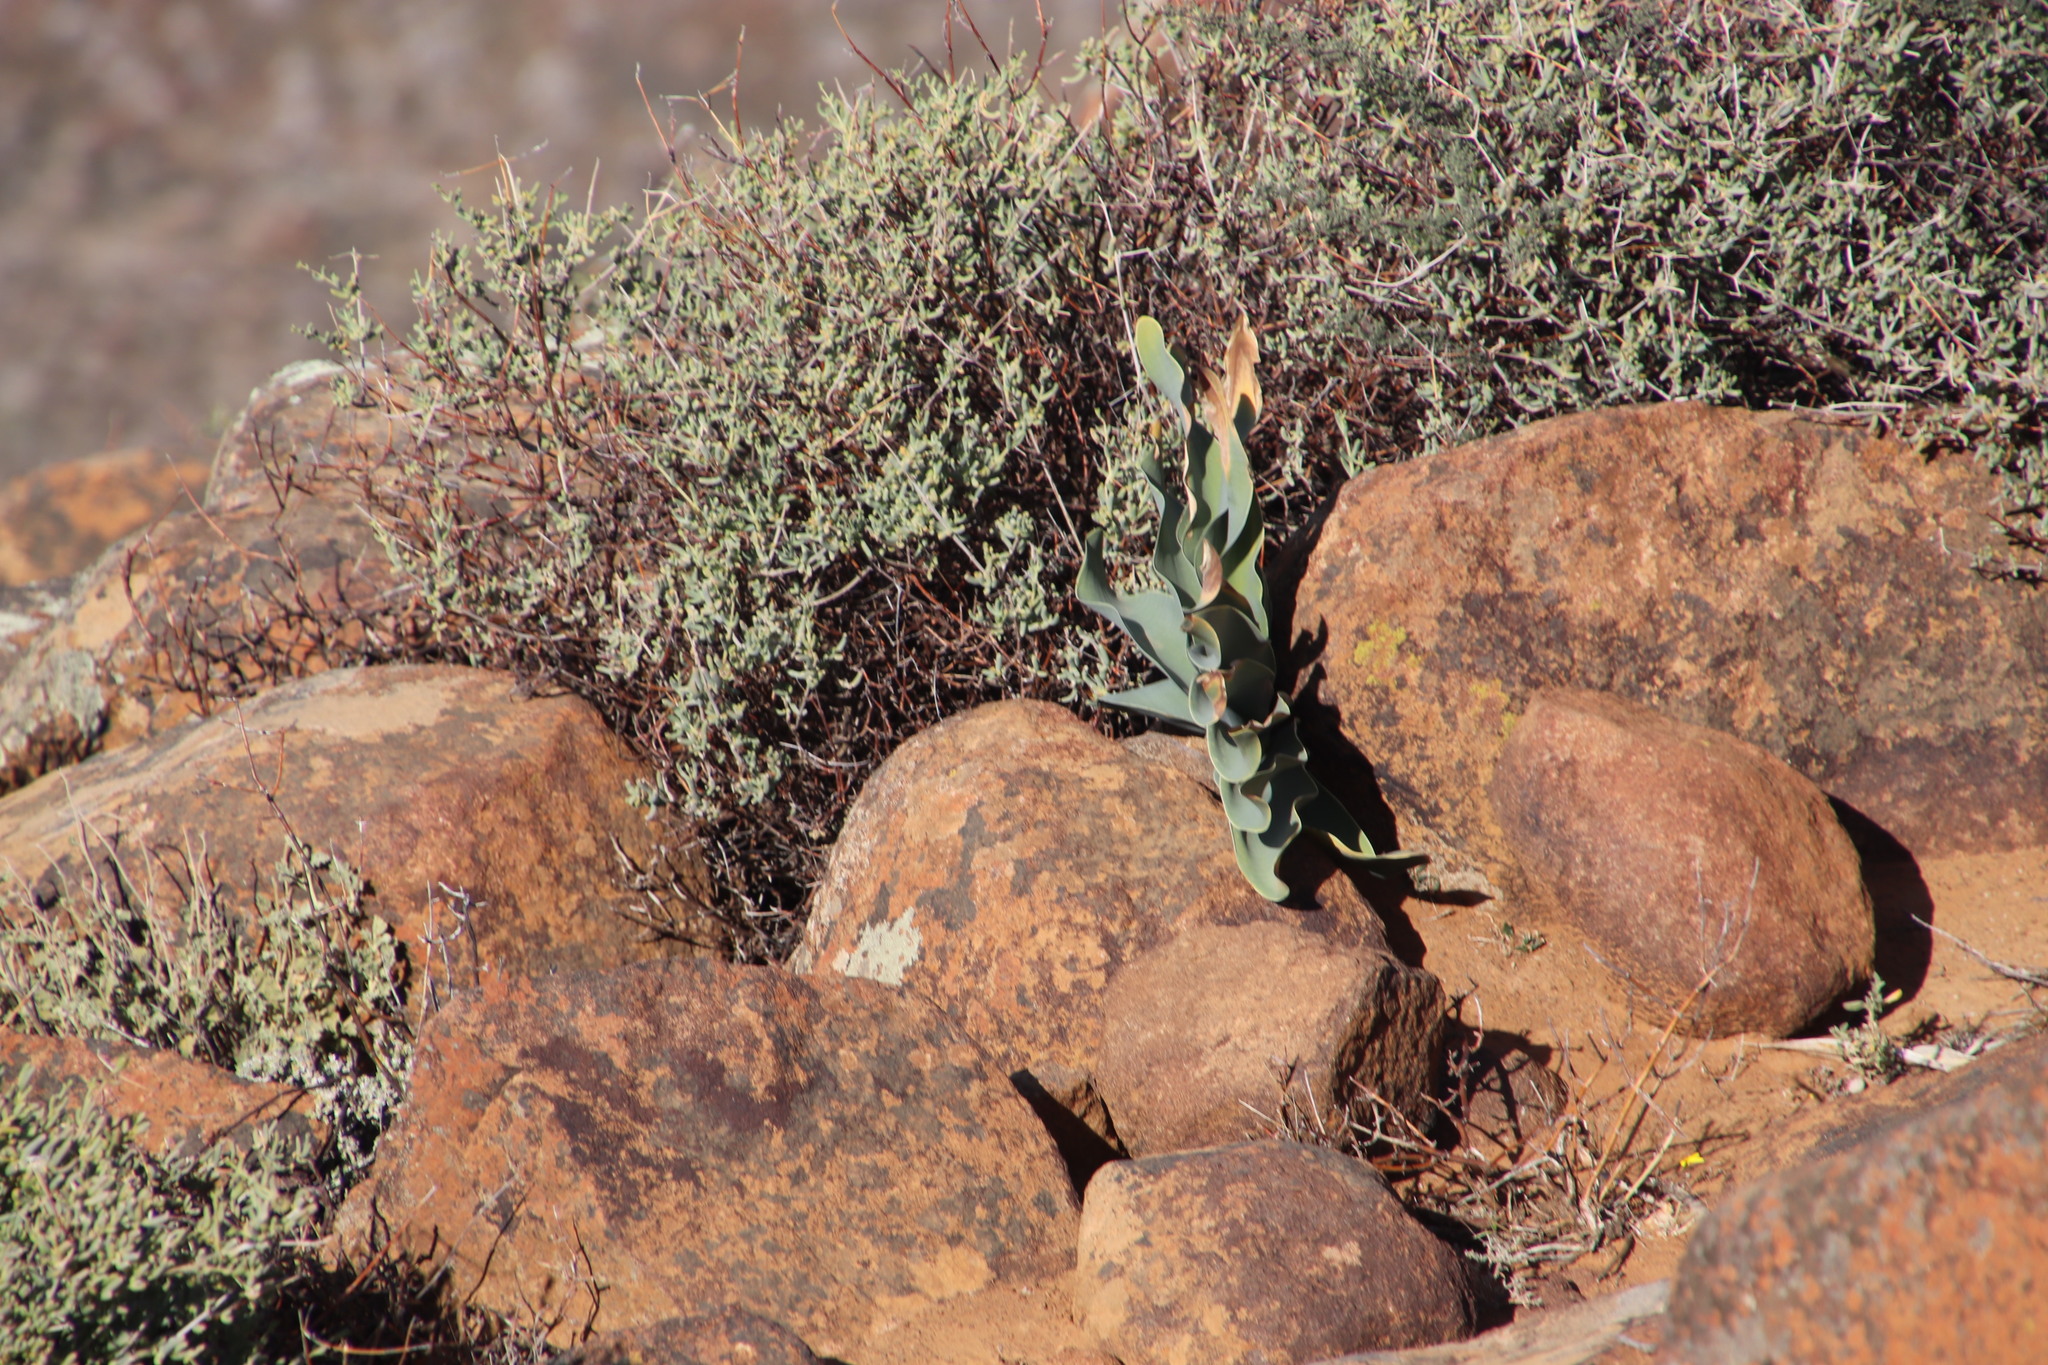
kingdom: Plantae
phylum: Tracheophyta
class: Liliopsida
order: Asparagales
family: Amaryllidaceae
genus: Boophone
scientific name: Boophone haemanthoides
